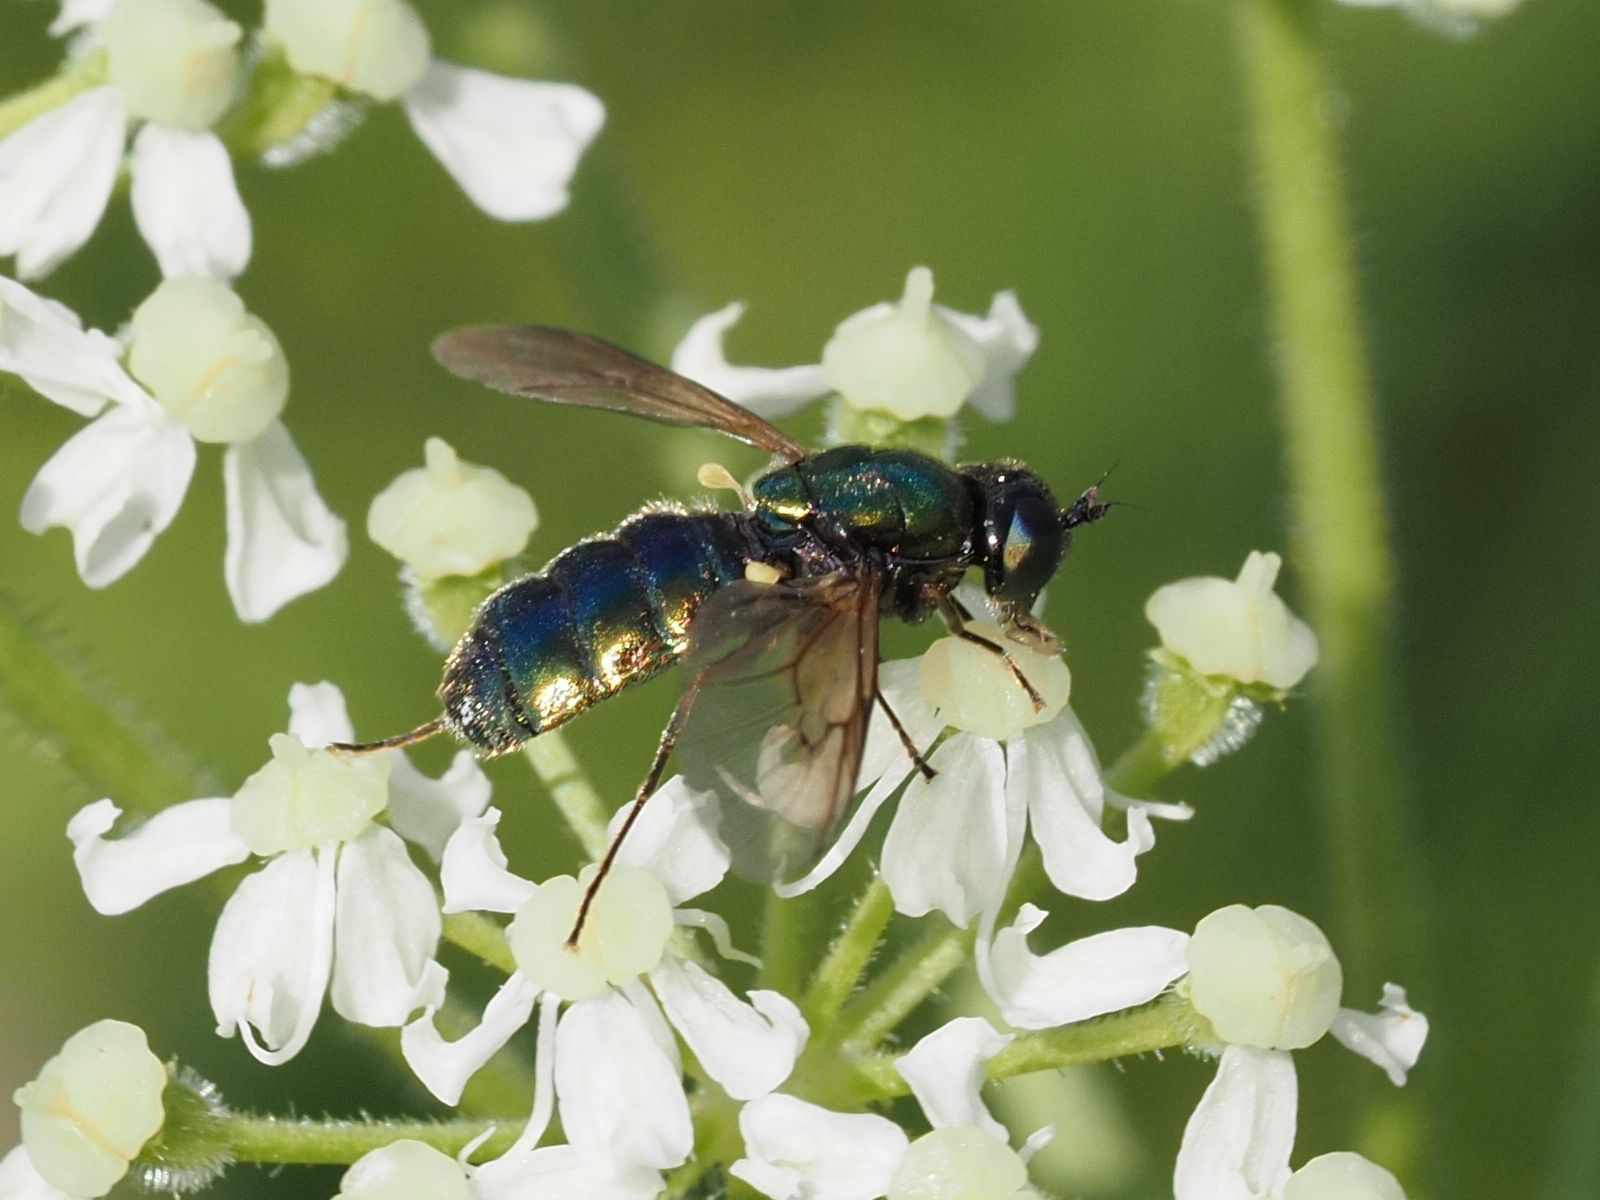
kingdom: Animalia
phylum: Arthropoda
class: Insecta
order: Diptera
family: Stratiomyidae
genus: Chloromyia
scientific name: Chloromyia formosa
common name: Soldier fly
